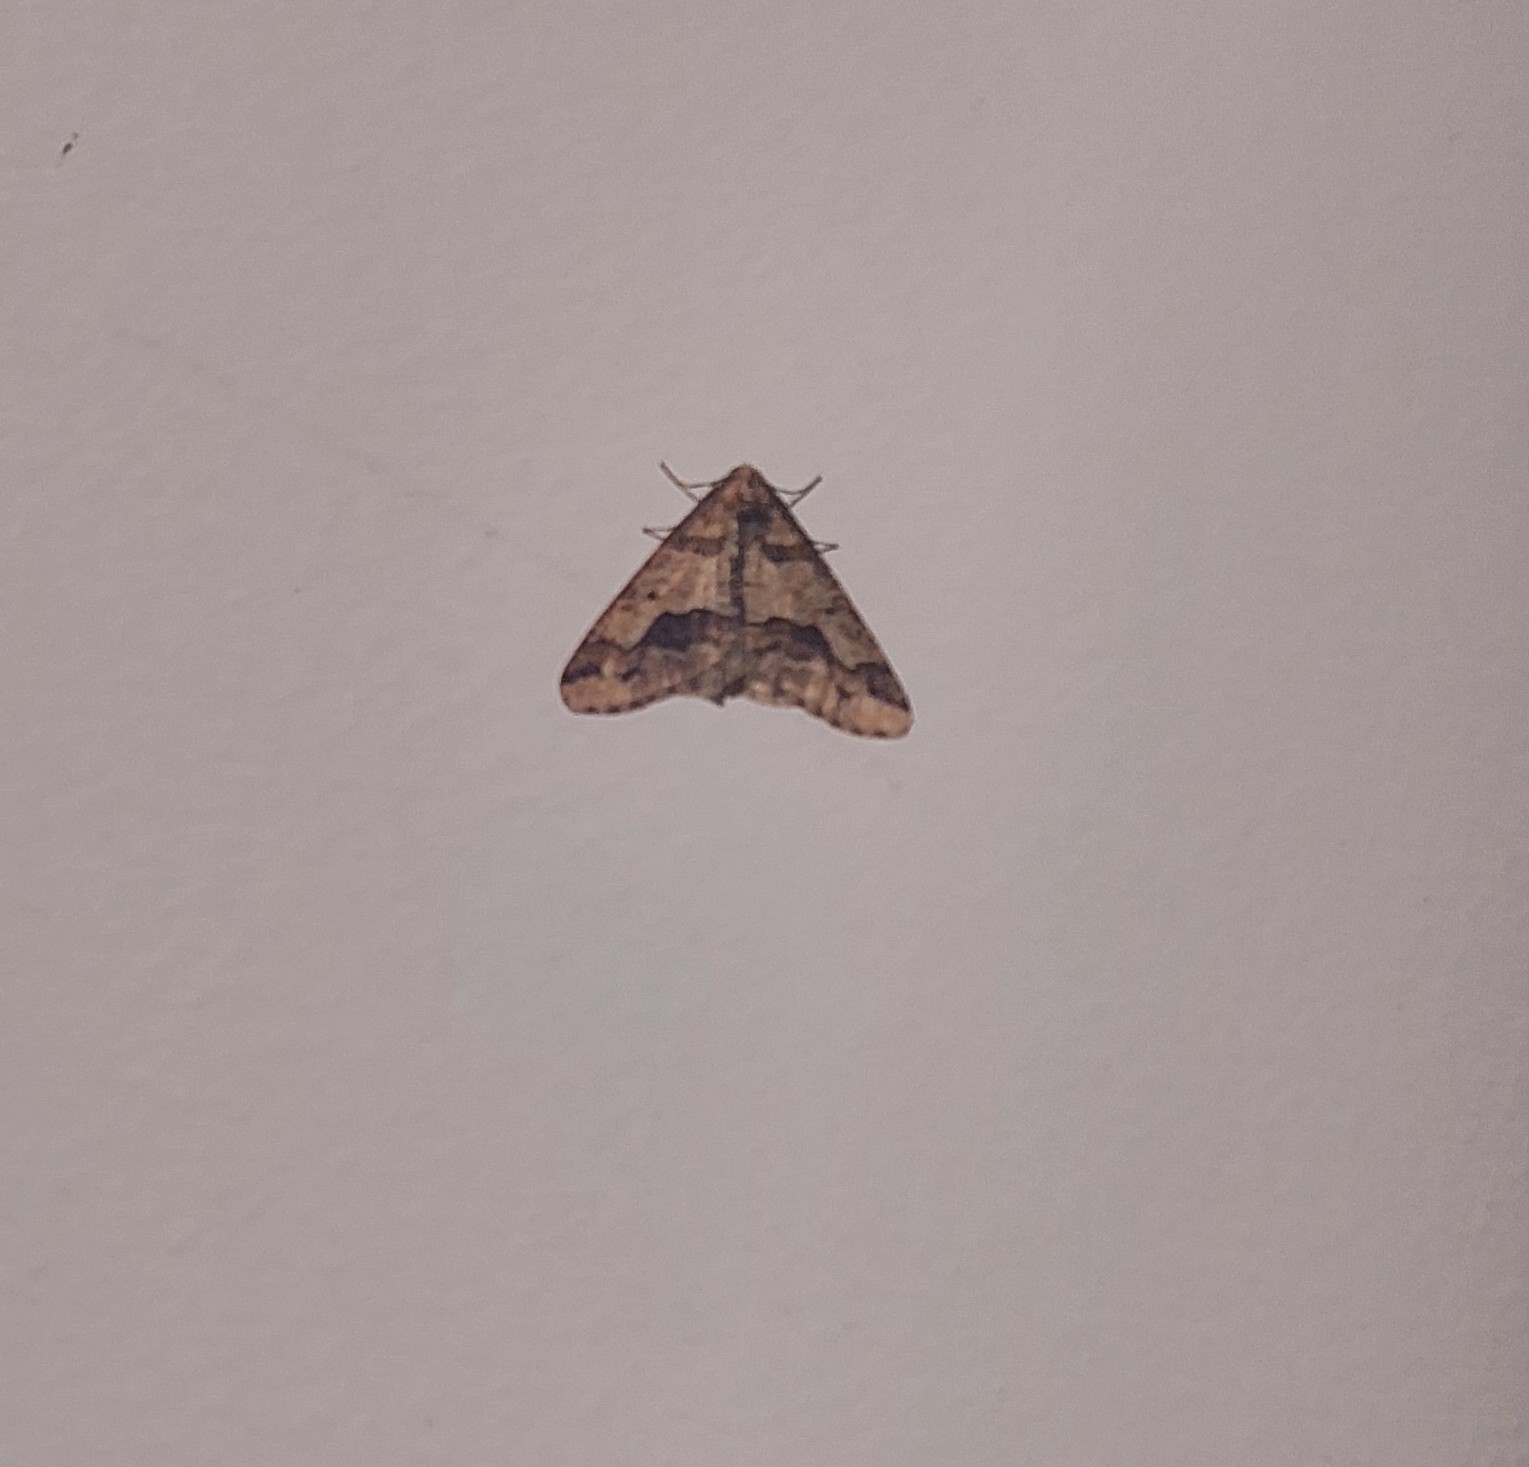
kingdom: Animalia
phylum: Arthropoda
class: Insecta
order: Lepidoptera
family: Geometridae
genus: Erannis
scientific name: Erannis defoliaria
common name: Mottled umber
